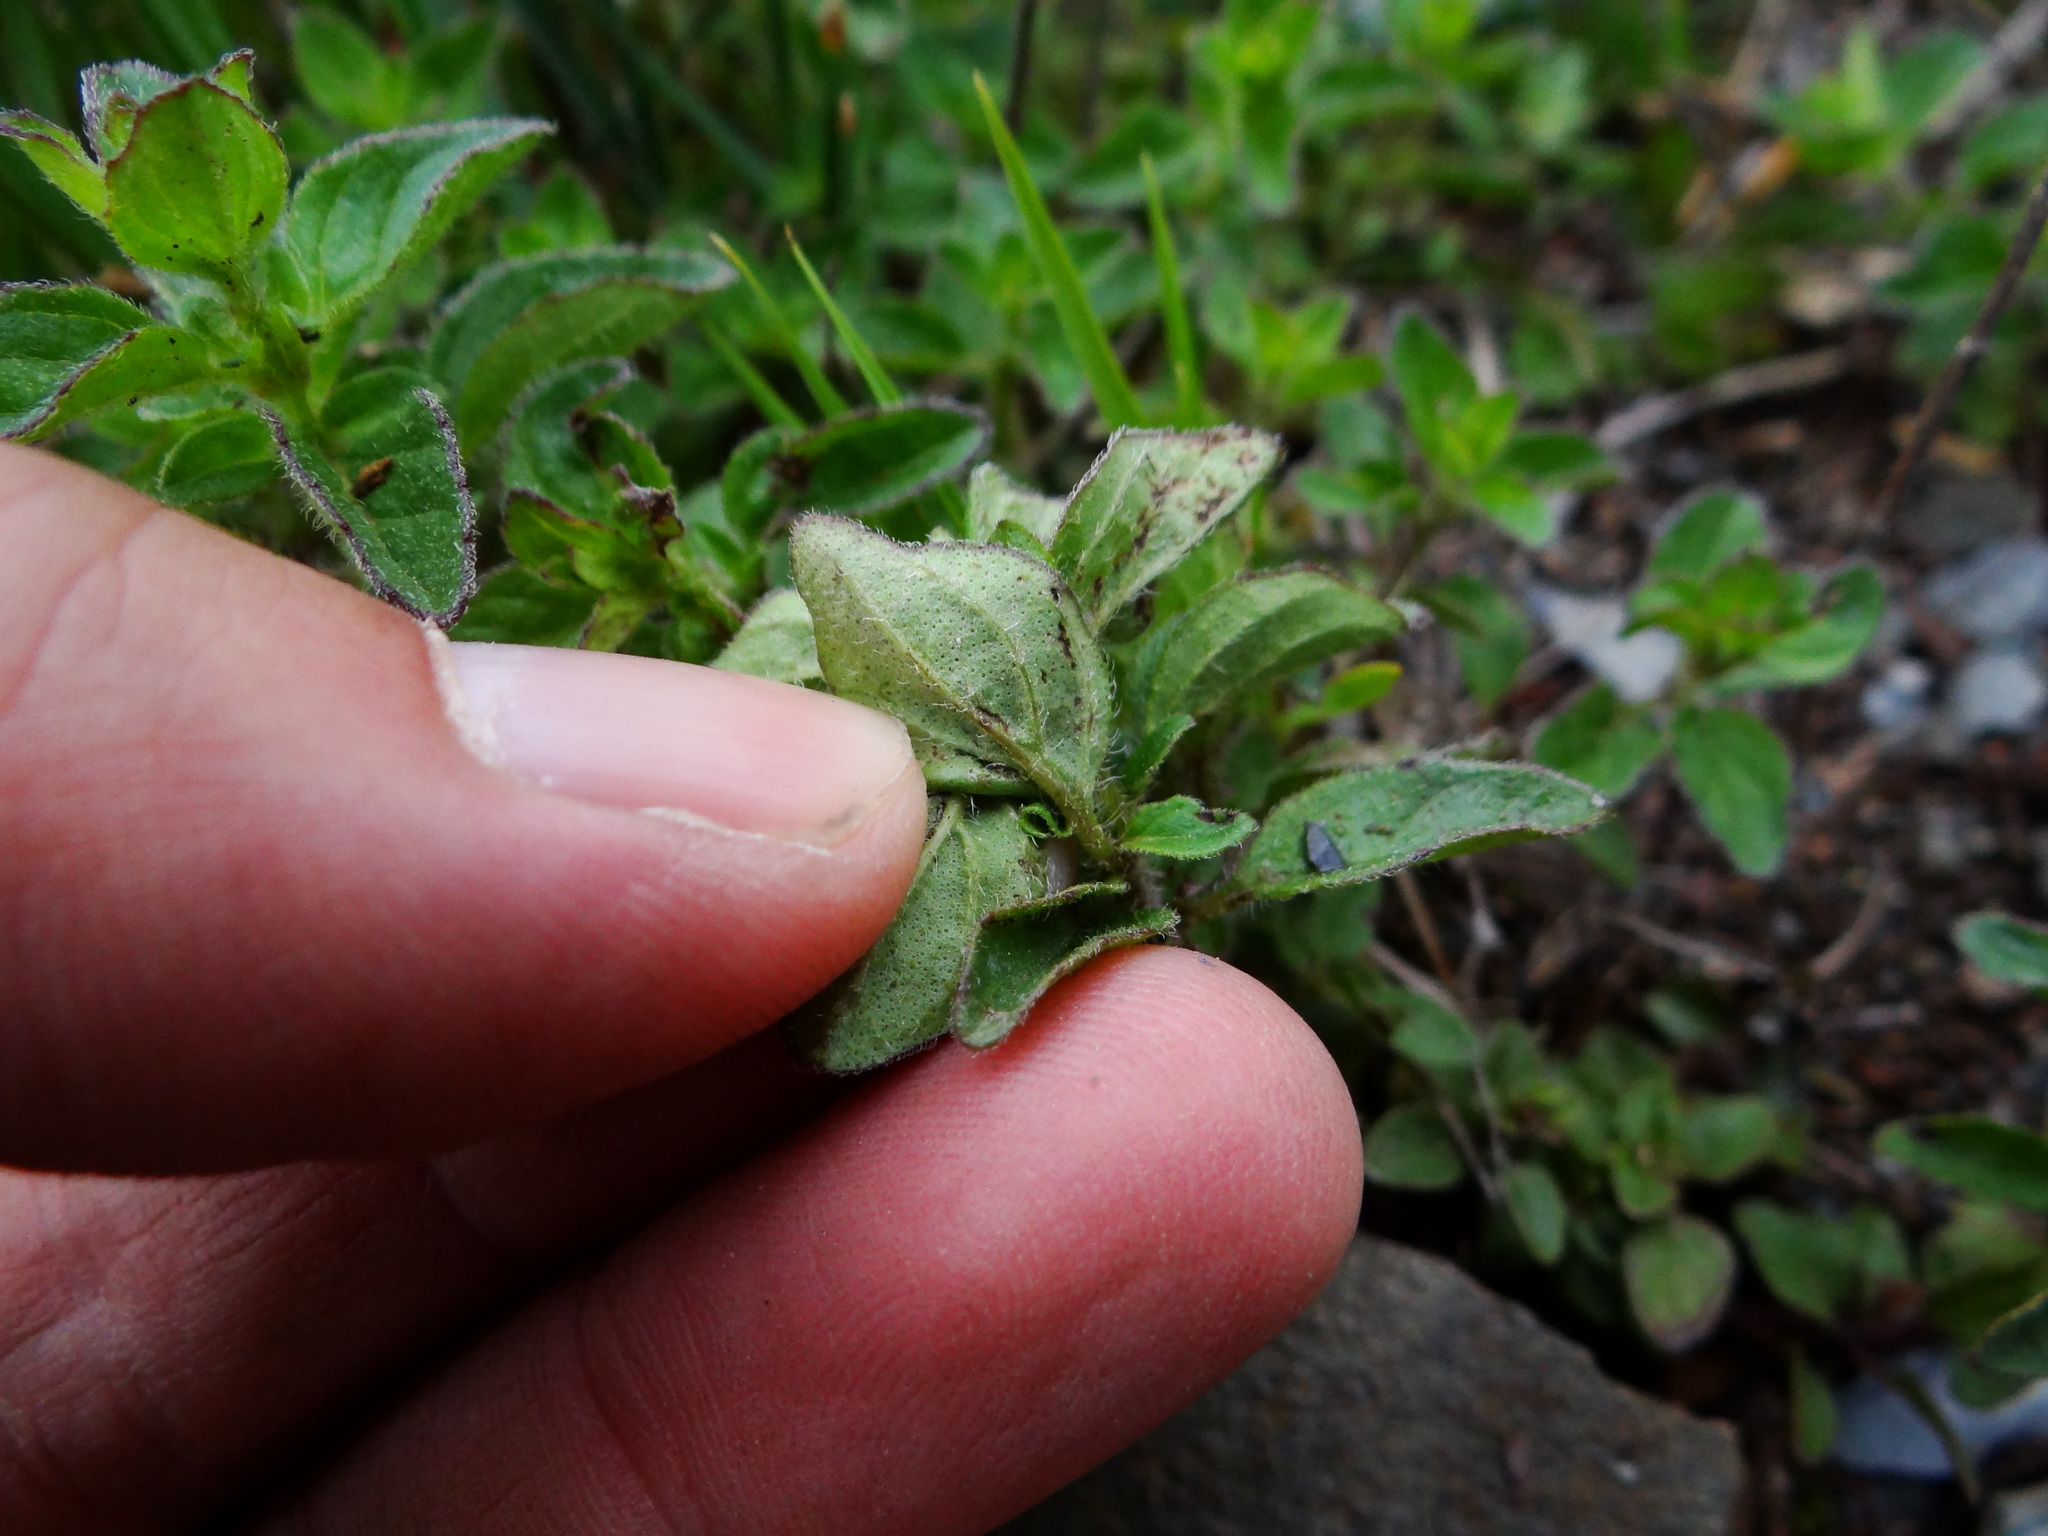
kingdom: Plantae
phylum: Tracheophyta
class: Magnoliopsida
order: Lamiales
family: Lamiaceae
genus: Origanum
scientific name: Origanum vulgare
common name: Wild marjoram
